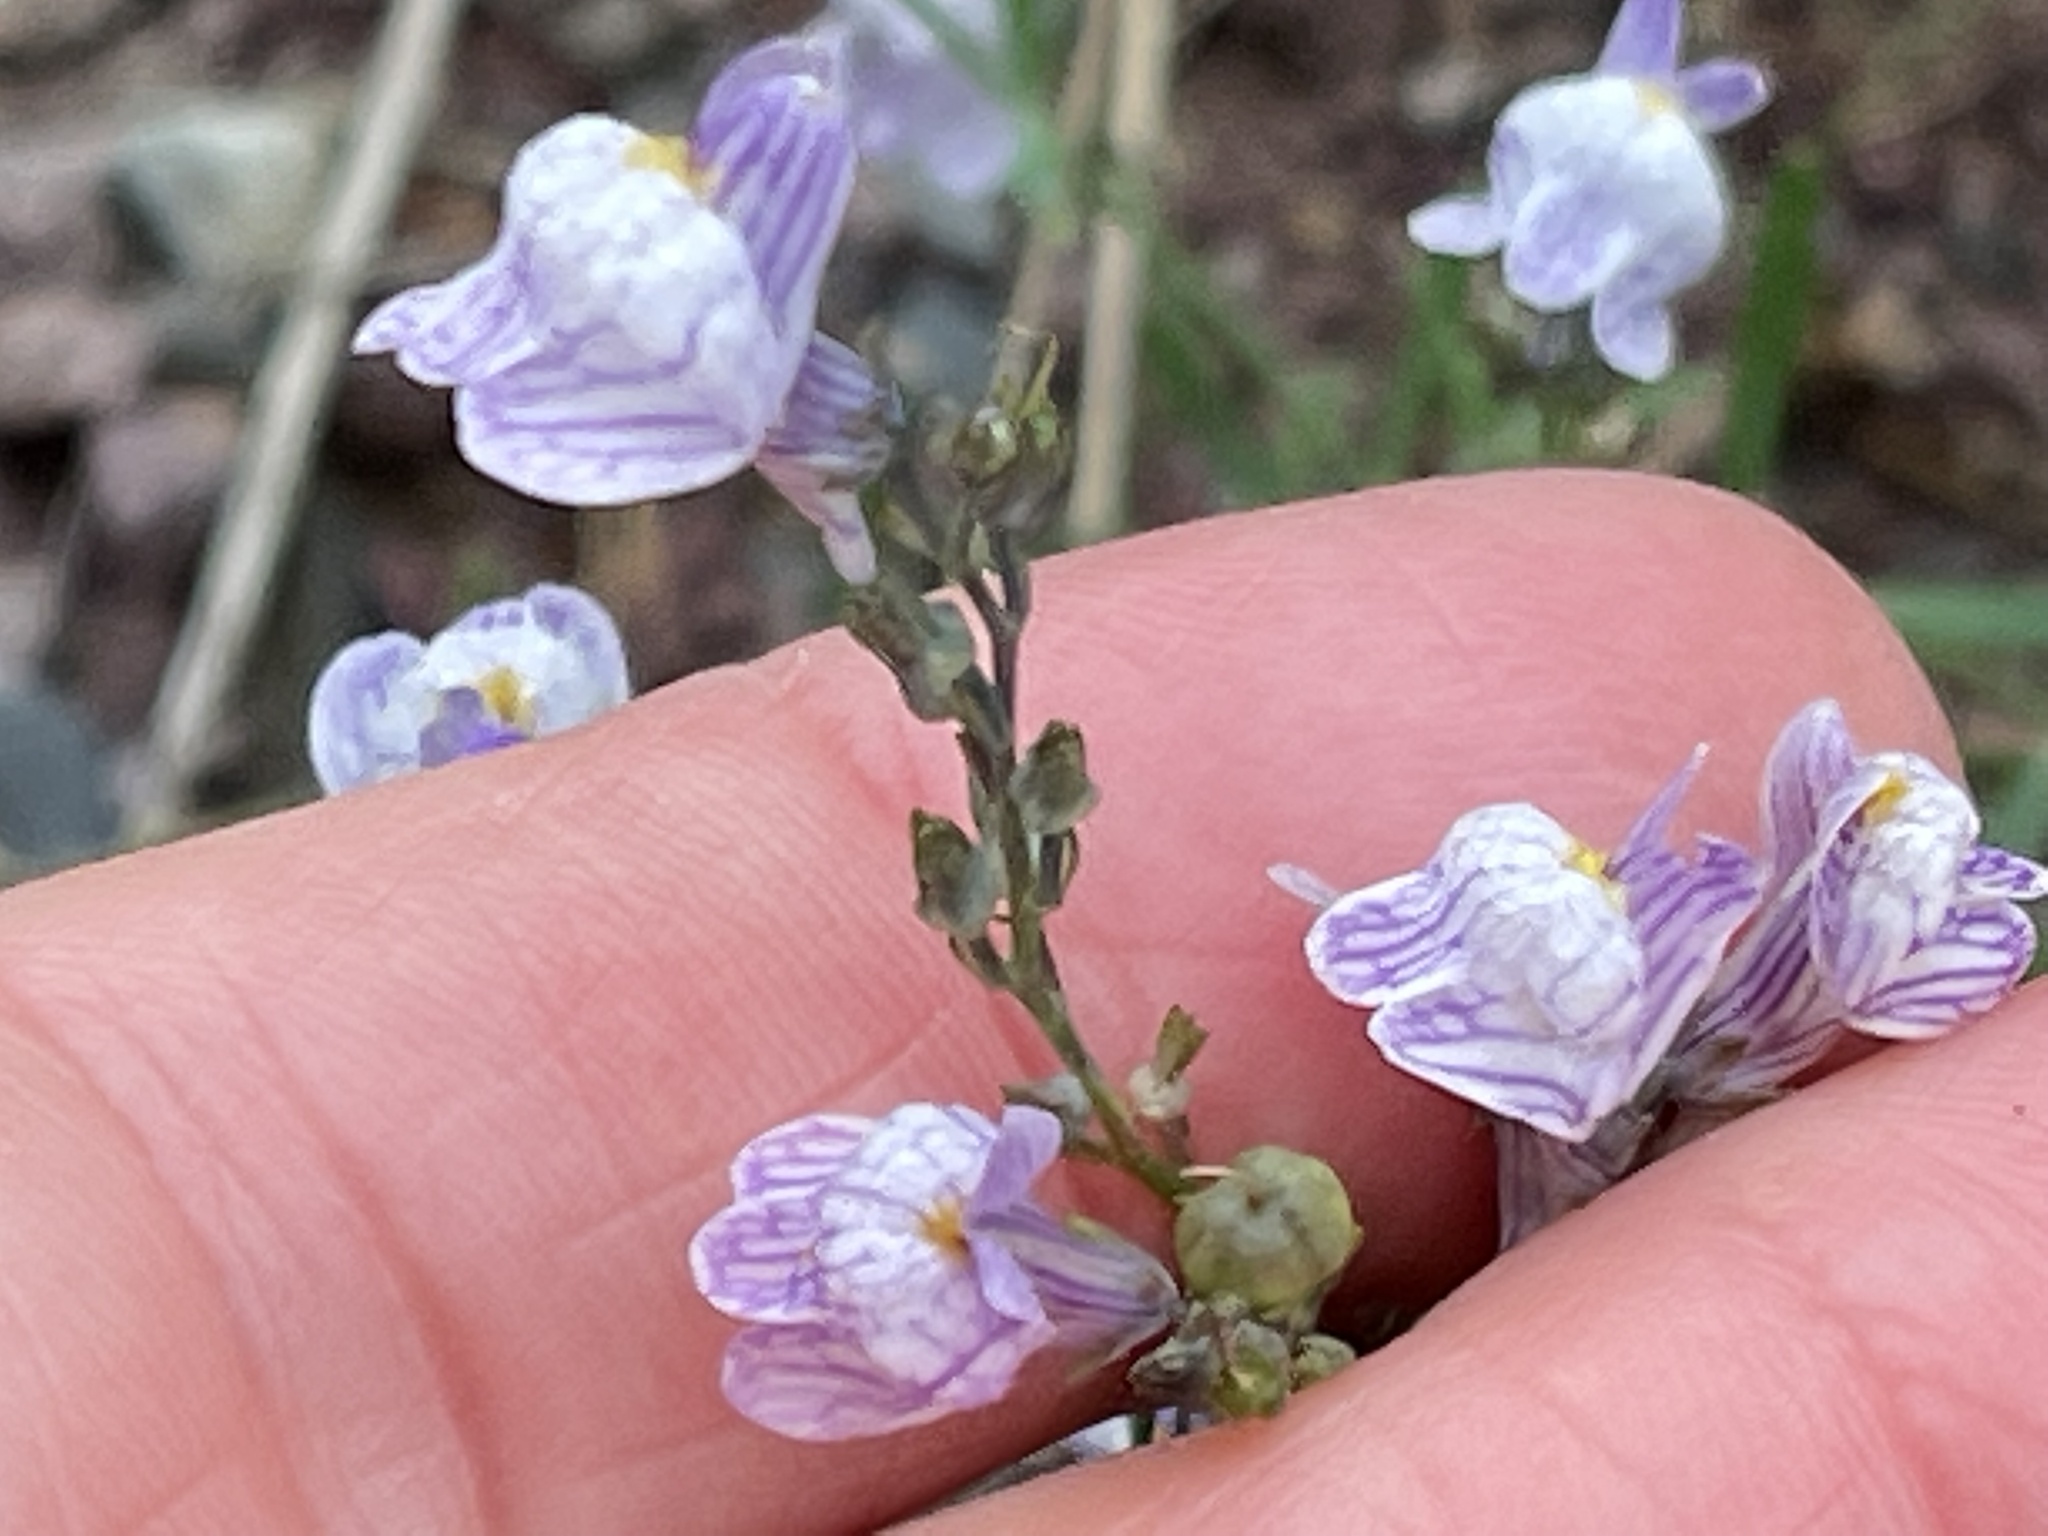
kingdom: Plantae
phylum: Tracheophyta
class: Magnoliopsida
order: Lamiales
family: Plantaginaceae
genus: Linaria
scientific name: Linaria repens
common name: Pale toadflax
